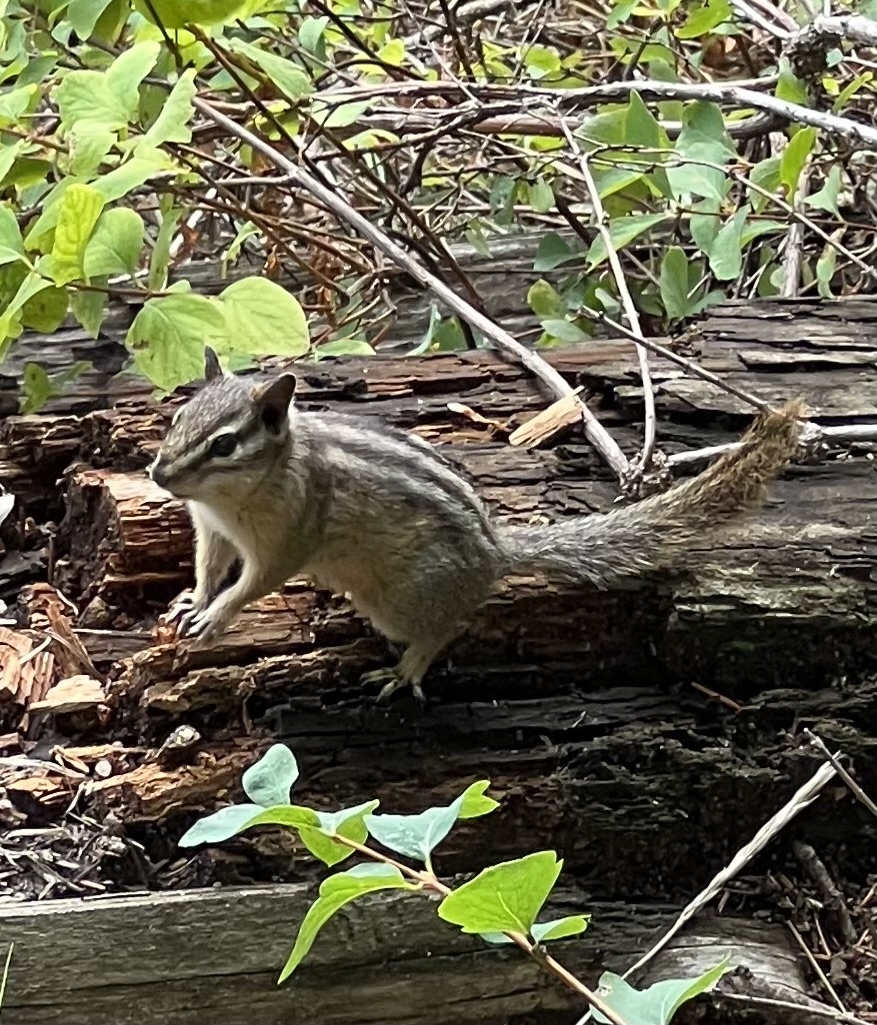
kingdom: Animalia
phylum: Chordata
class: Mammalia
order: Rodentia
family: Sciuridae
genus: Tamias
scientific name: Tamias minimus
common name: Least chipmunk
